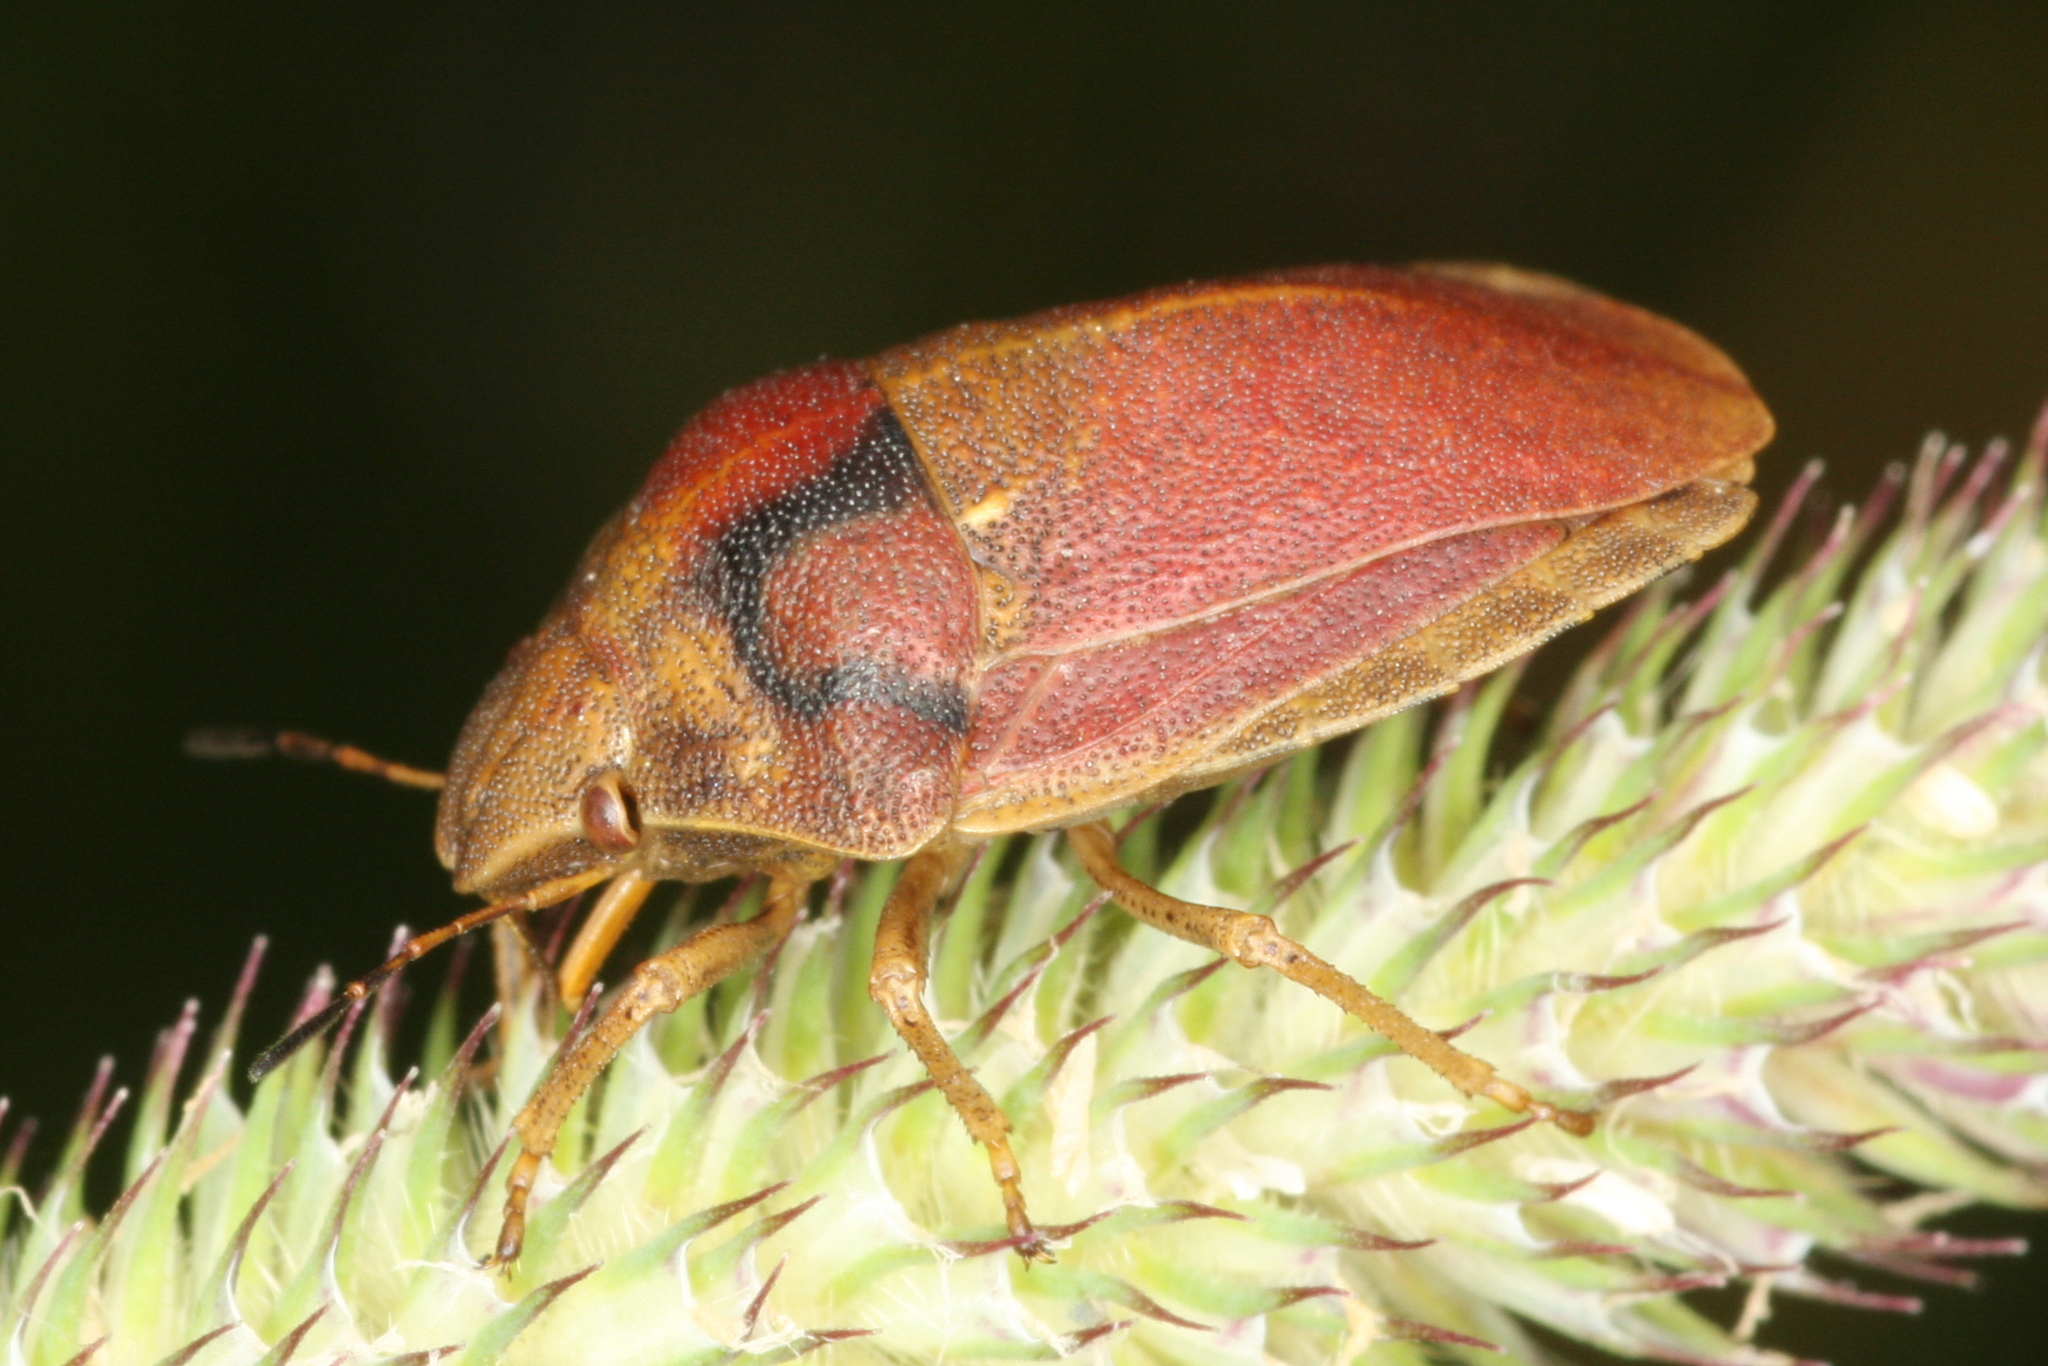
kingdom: Animalia
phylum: Arthropoda
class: Insecta
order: Hemiptera
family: Scutelleridae
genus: Eurygaster
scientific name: Eurygaster testudinaria
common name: Tortoise bug
